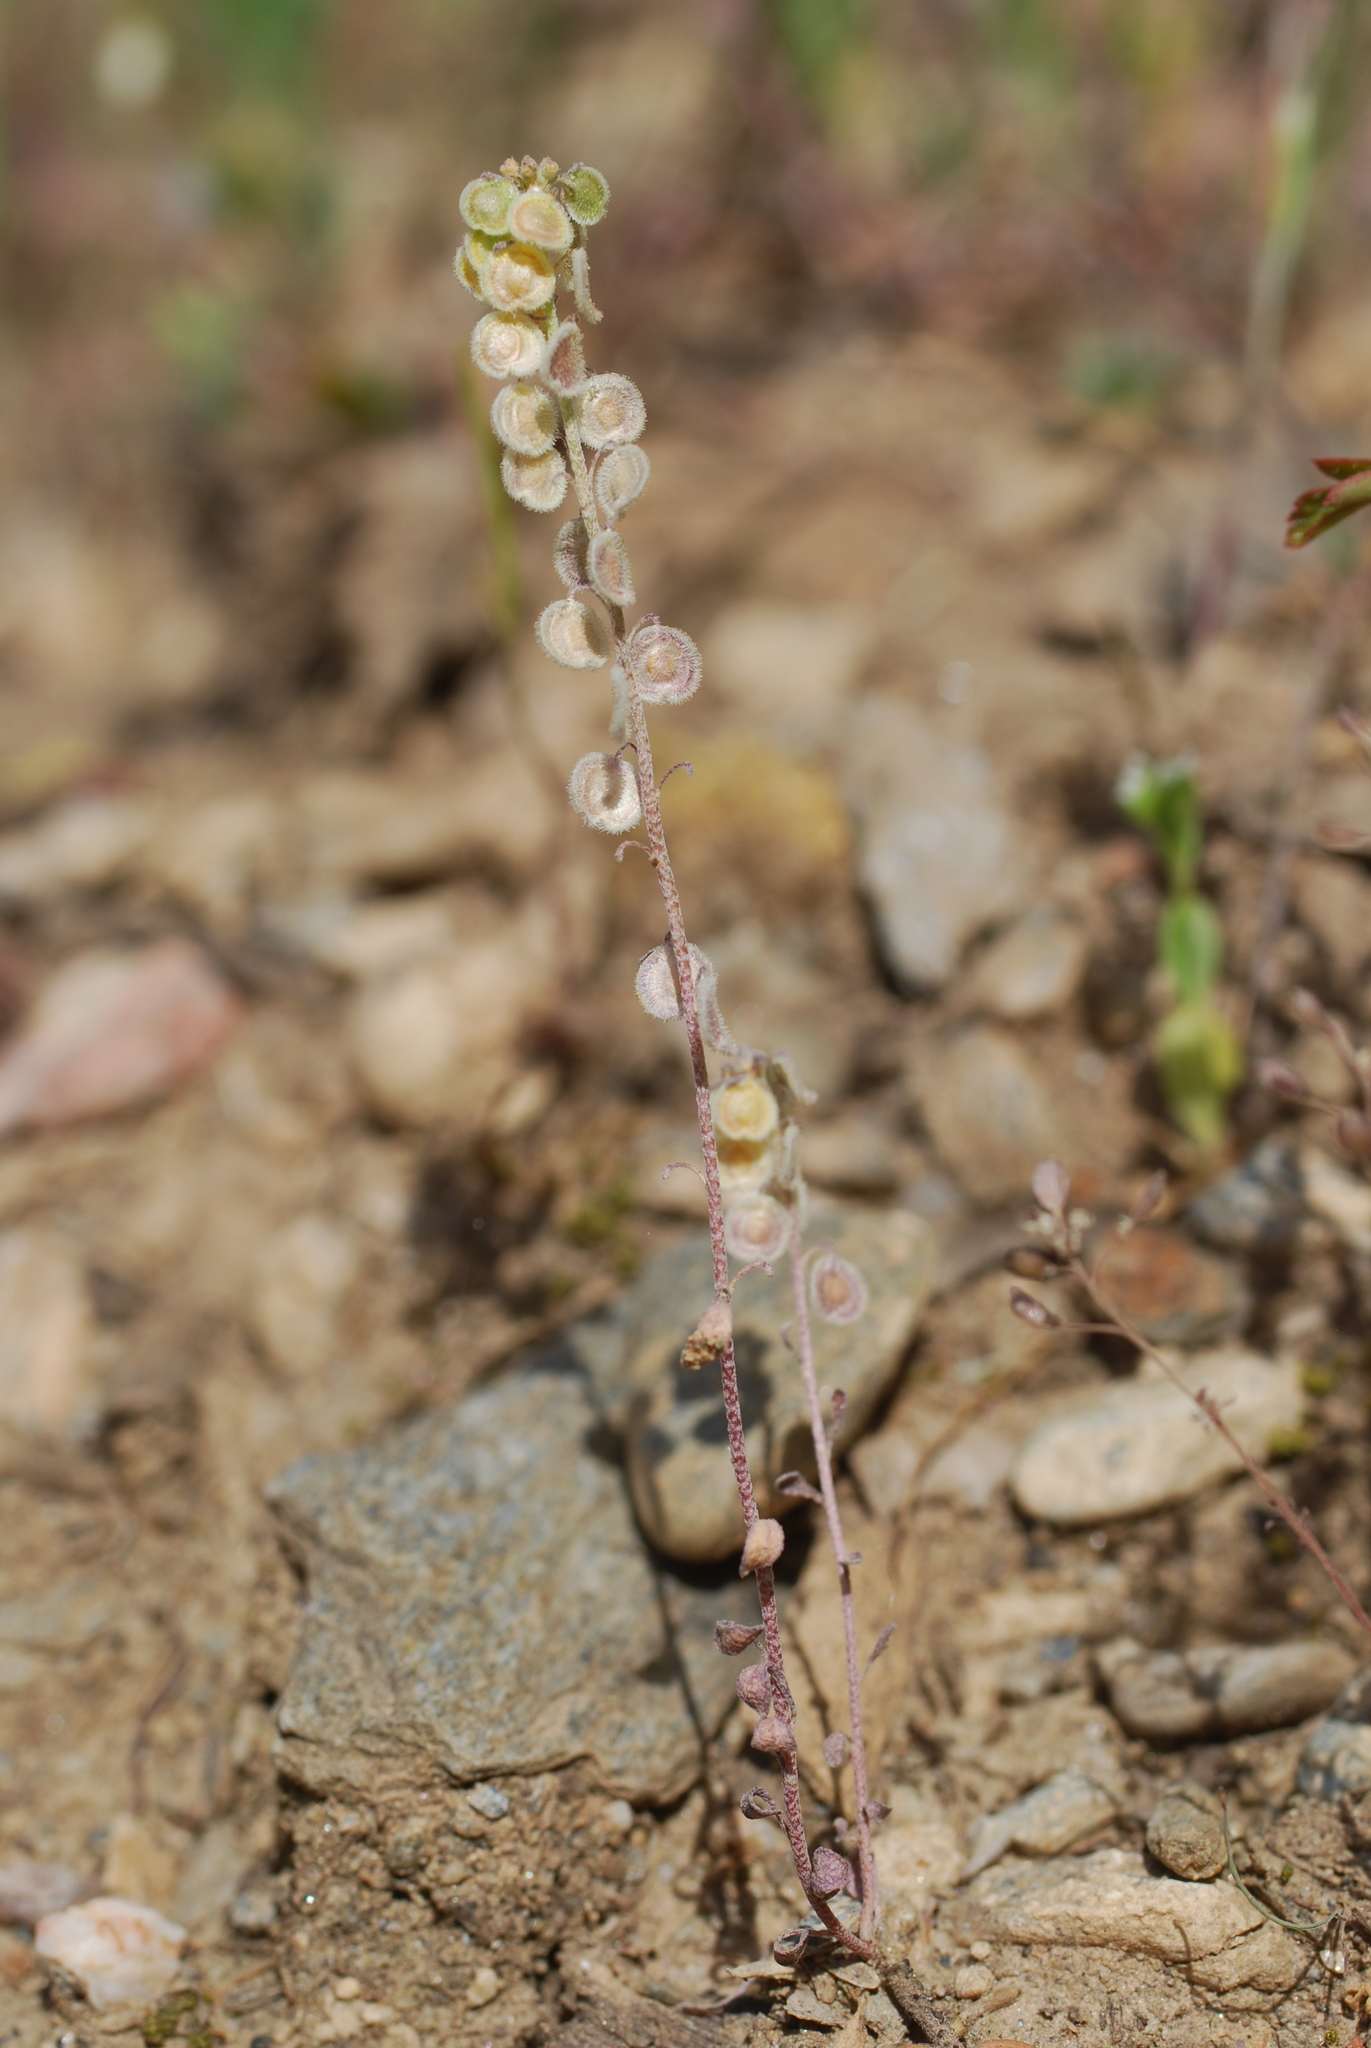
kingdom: Plantae
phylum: Tracheophyta
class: Magnoliopsida
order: Brassicales
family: Brassicaceae
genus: Clypeola
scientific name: Clypeola jonthlaspi
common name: Disk cress
